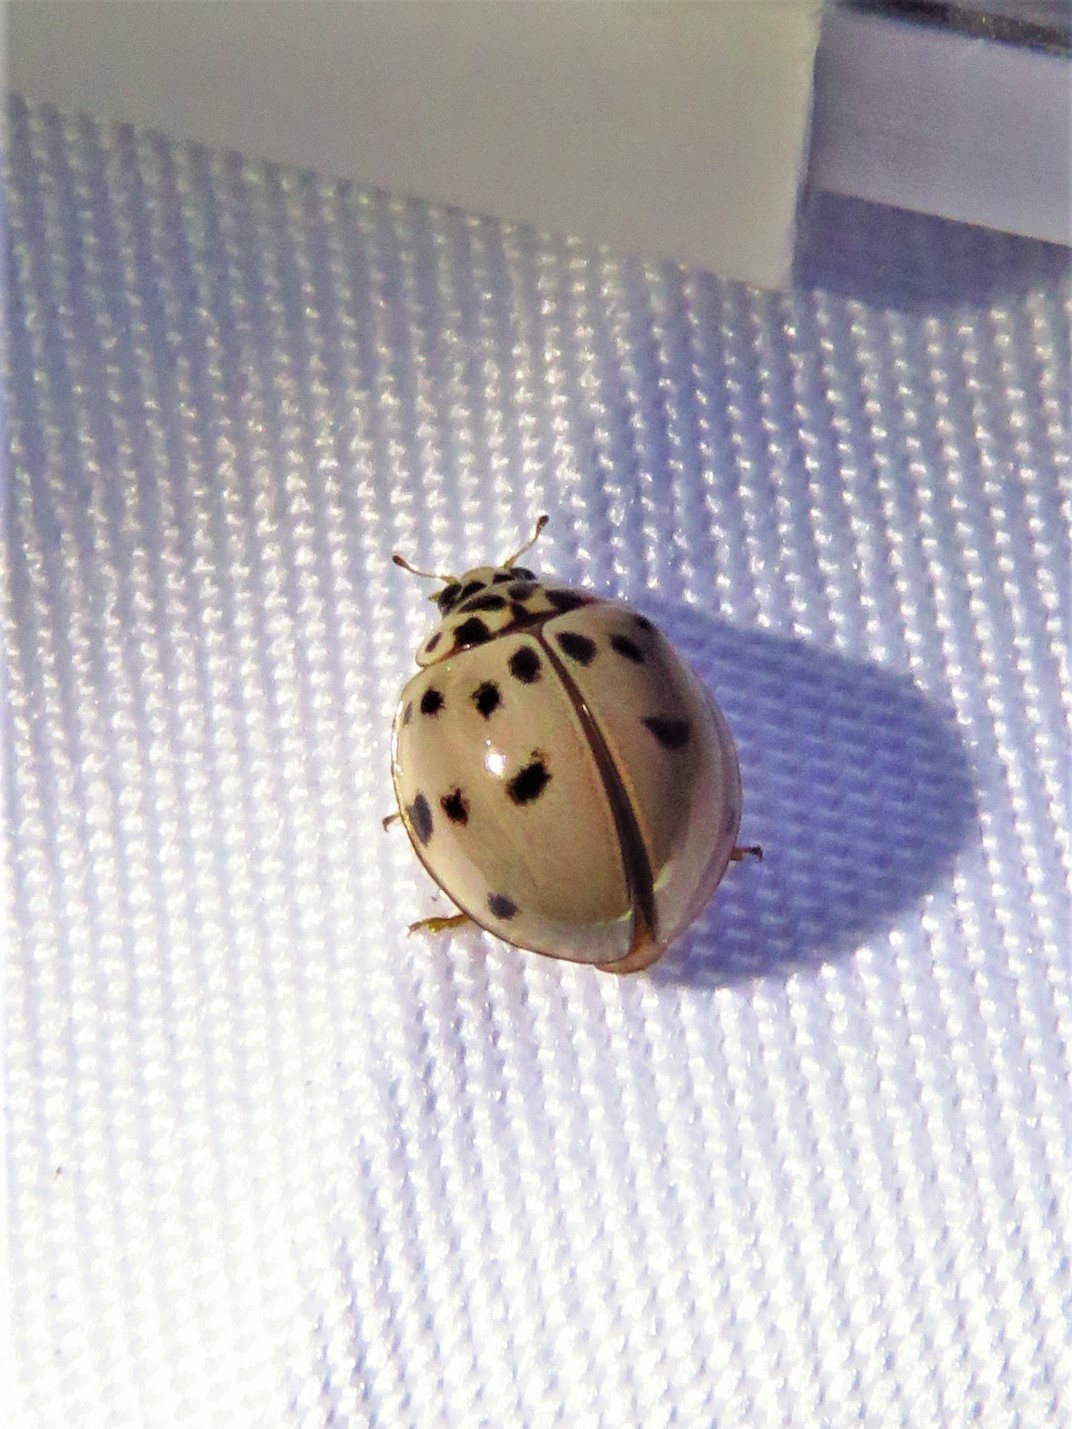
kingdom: Animalia
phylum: Arthropoda
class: Insecta
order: Coleoptera
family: Coccinellidae
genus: Olla
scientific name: Olla v-nigrum
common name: Ashy gray lady beetle
